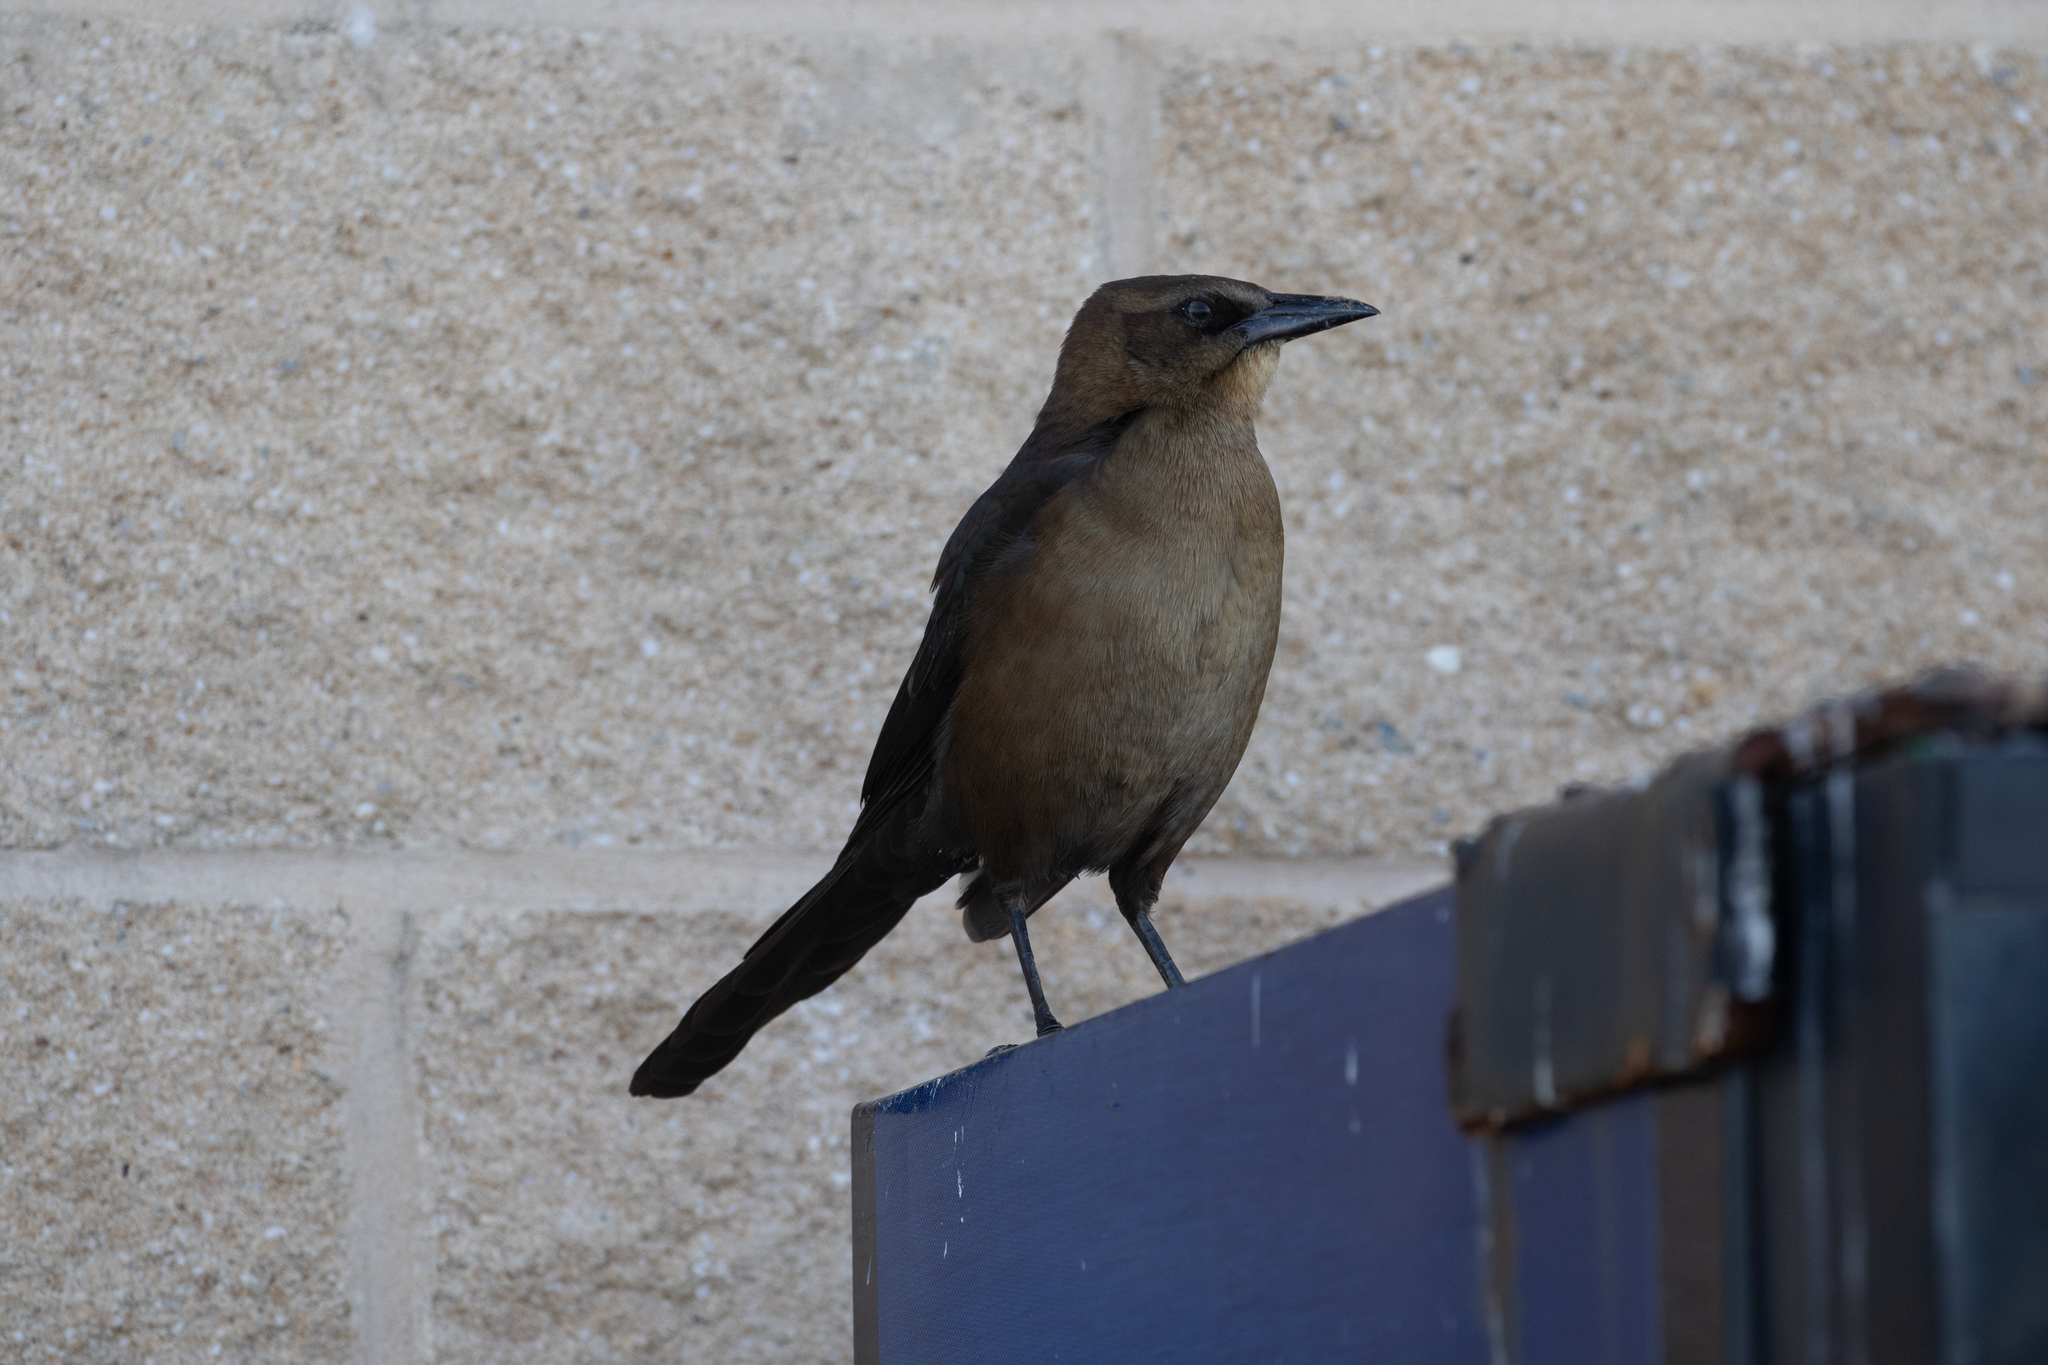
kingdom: Animalia
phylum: Chordata
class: Aves
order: Passeriformes
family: Icteridae
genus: Quiscalus
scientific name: Quiscalus major
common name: Boat-tailed grackle
